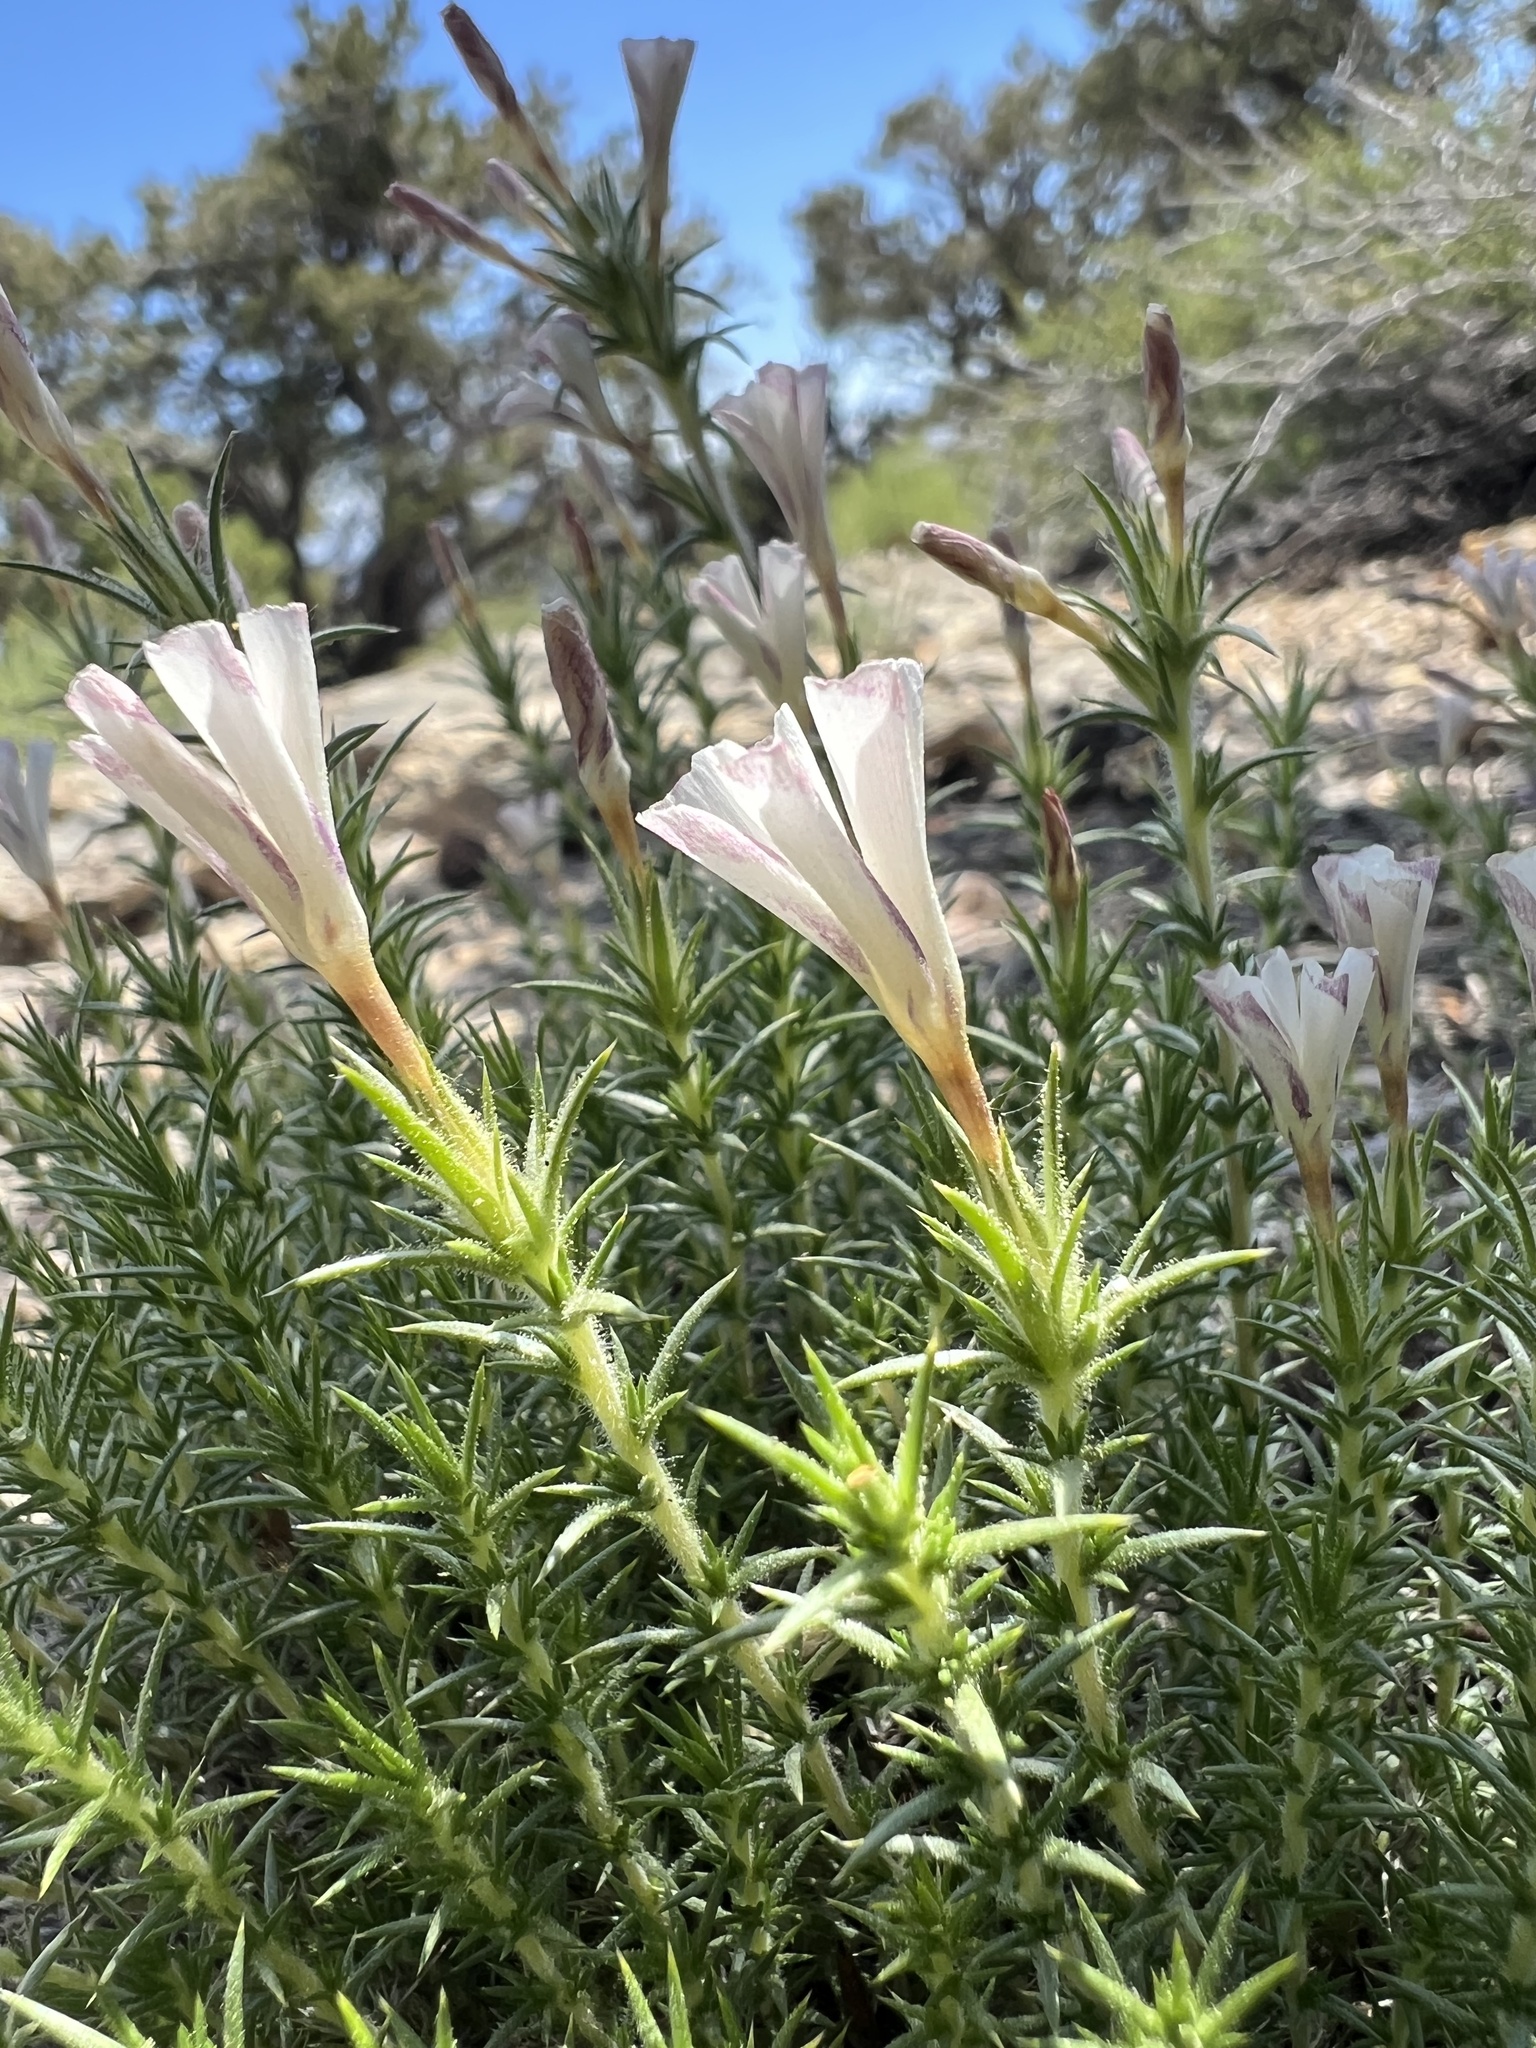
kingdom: Plantae
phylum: Tracheophyta
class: Magnoliopsida
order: Ericales
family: Polemoniaceae
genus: Linanthus
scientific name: Linanthus pungens
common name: Granite prickly phlox
